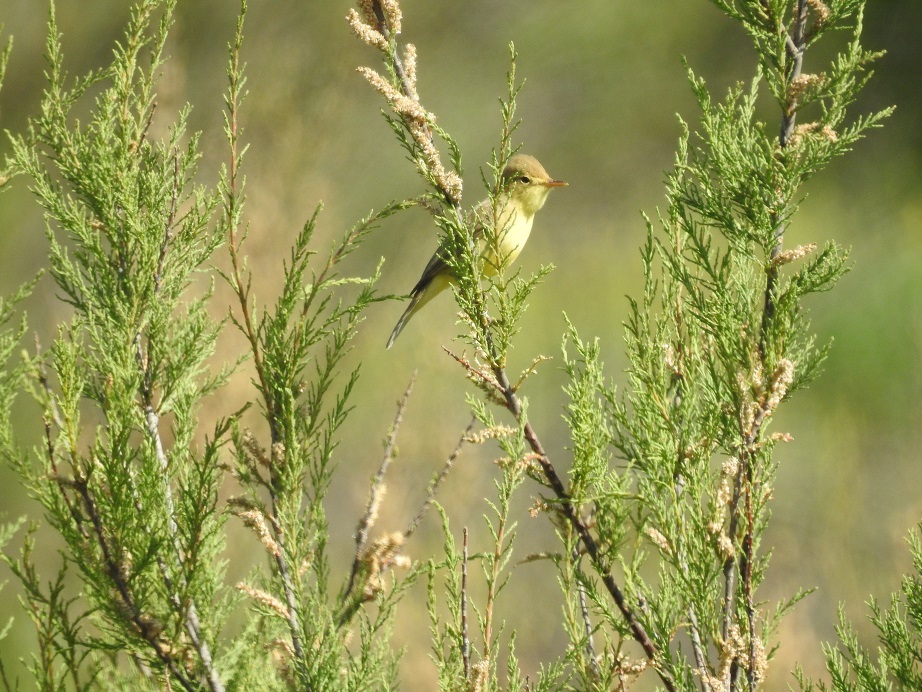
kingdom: Animalia
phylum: Chordata
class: Aves
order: Passeriformes
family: Acrocephalidae
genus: Hippolais
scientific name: Hippolais polyglotta
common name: Melodious warbler
